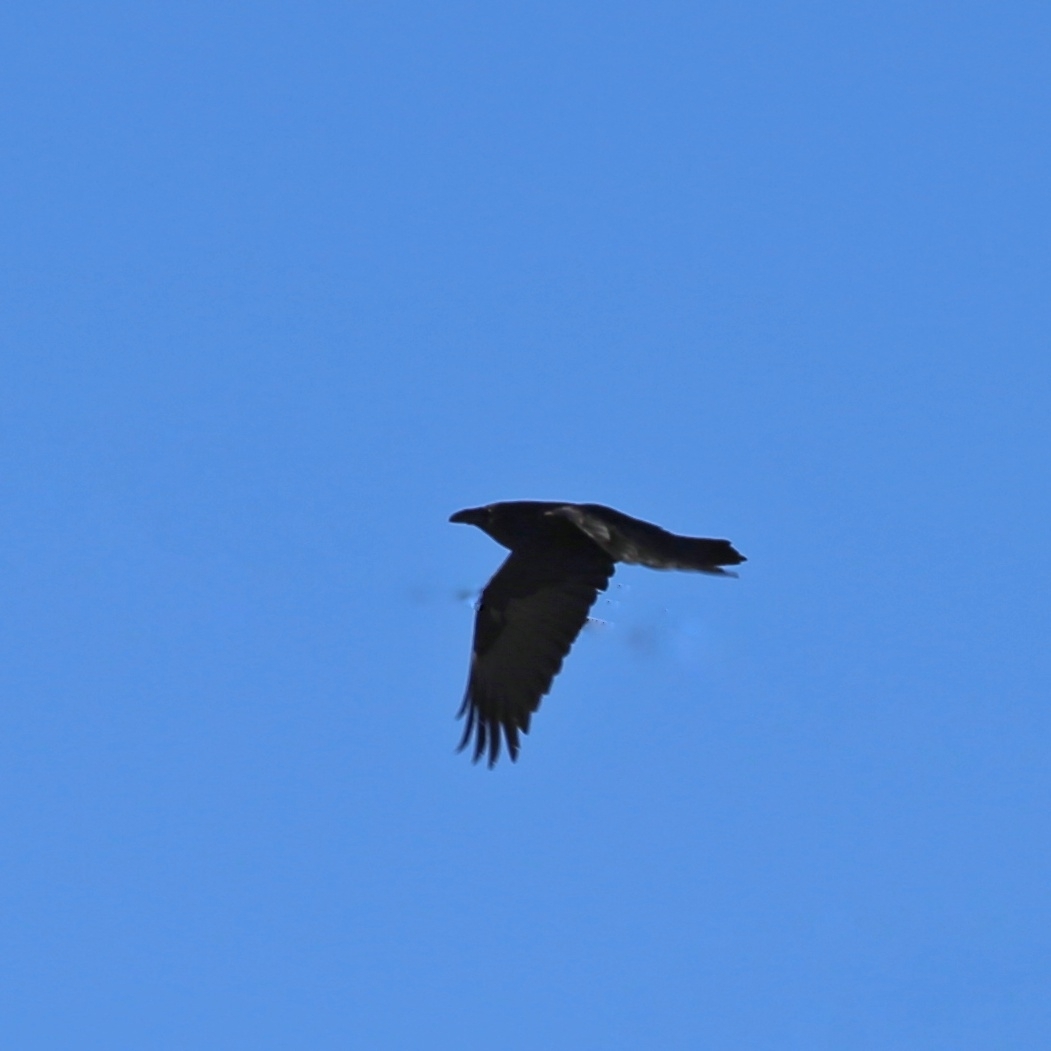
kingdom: Animalia
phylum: Chordata
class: Aves
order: Passeriformes
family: Corvidae
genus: Corvus
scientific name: Corvus corax
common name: Common raven
